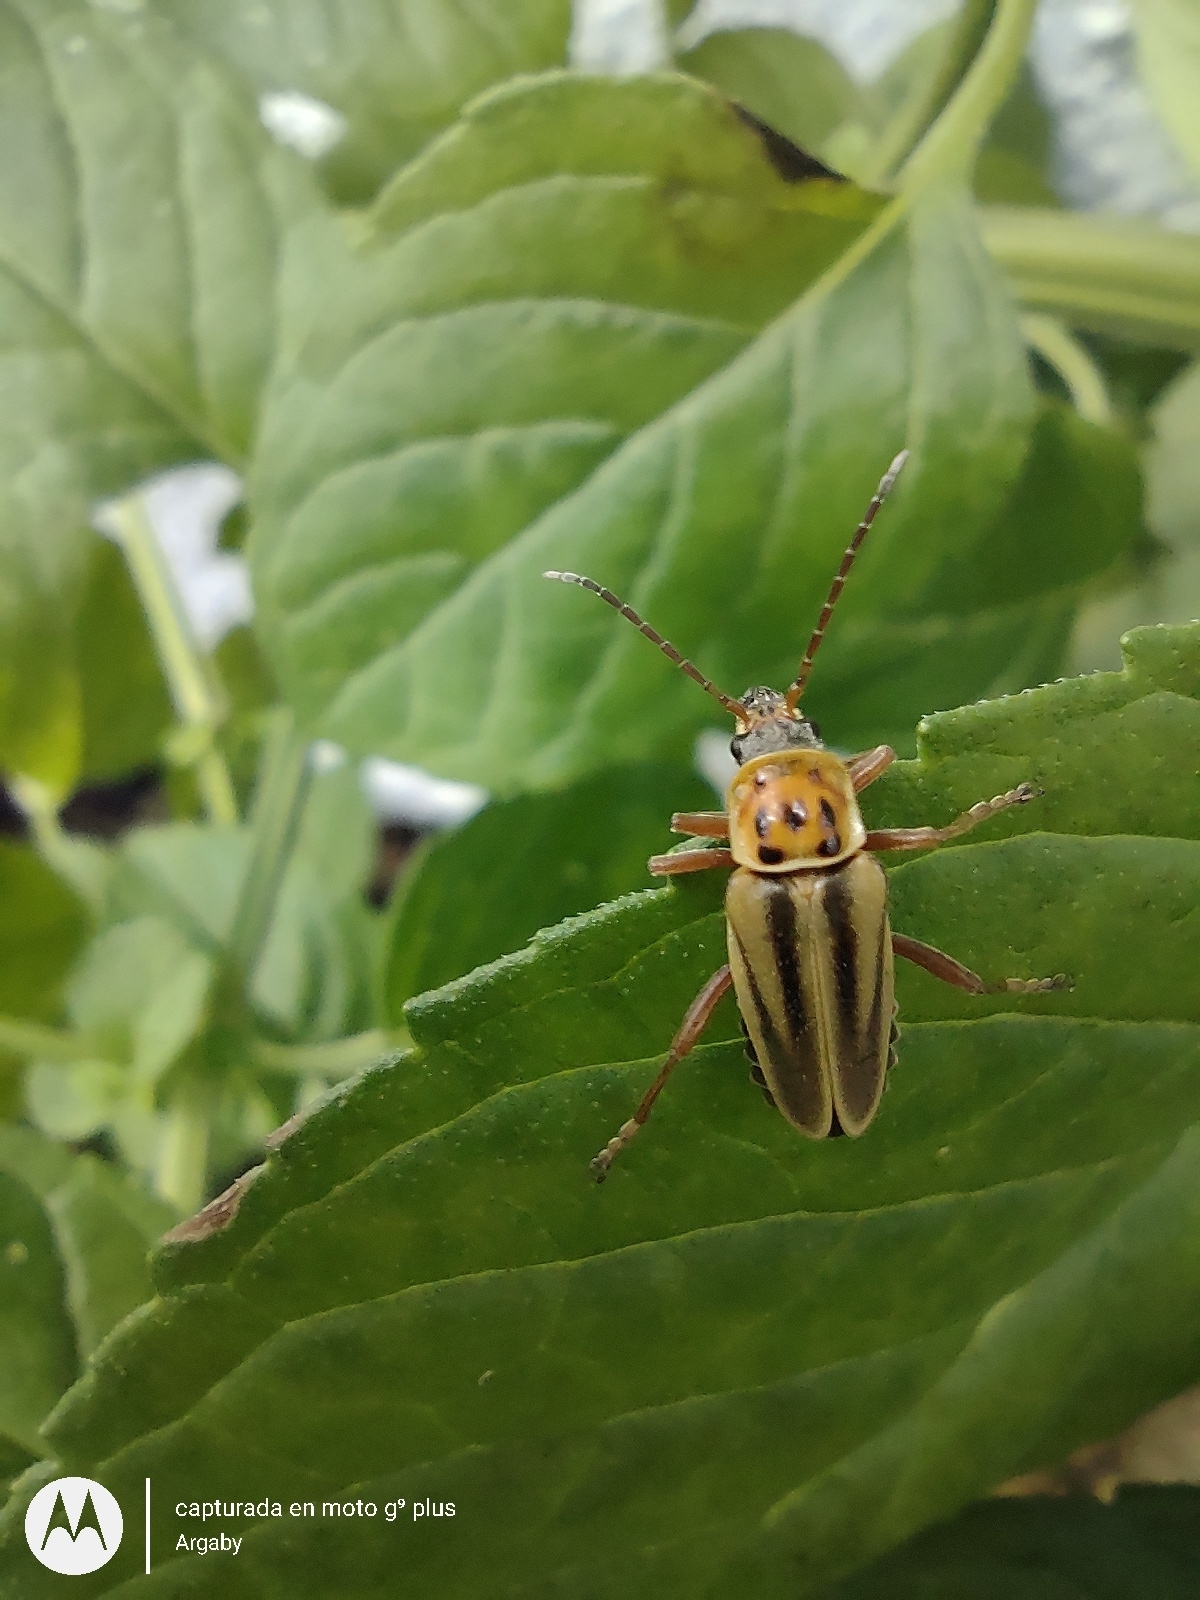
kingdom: Animalia
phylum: Arthropoda
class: Insecta
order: Coleoptera
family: Cantharidae
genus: Chauliognathus
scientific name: Chauliognathus
